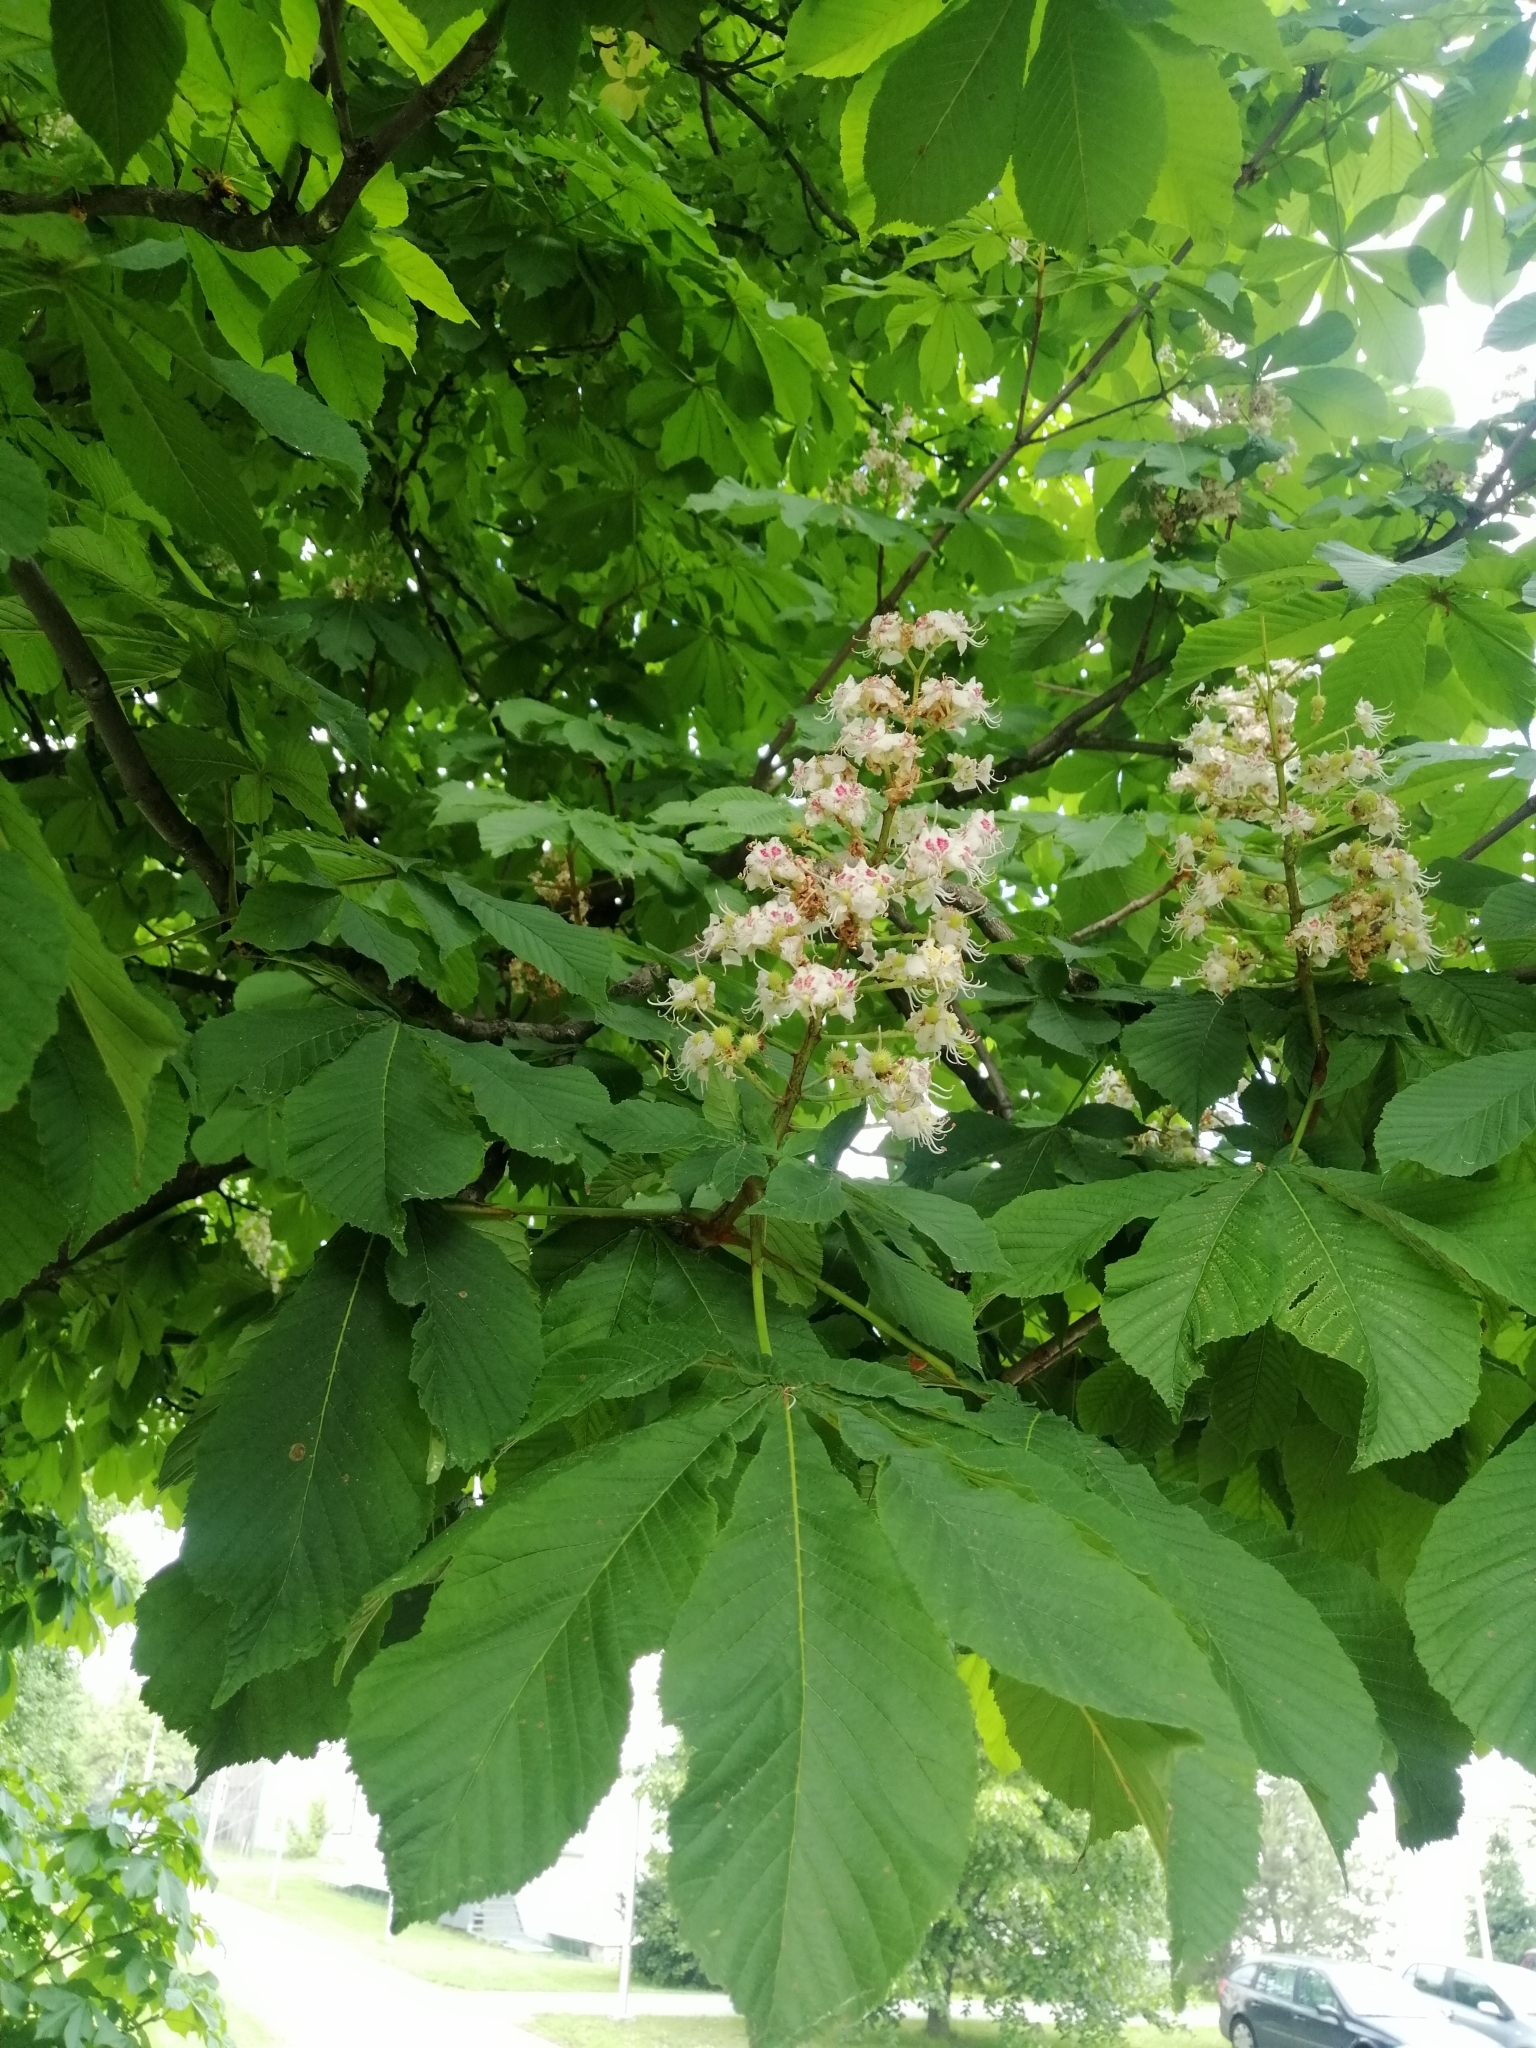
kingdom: Plantae
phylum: Tracheophyta
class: Magnoliopsida
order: Sapindales
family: Sapindaceae
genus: Aesculus
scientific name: Aesculus hippocastanum
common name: Horse-chestnut
